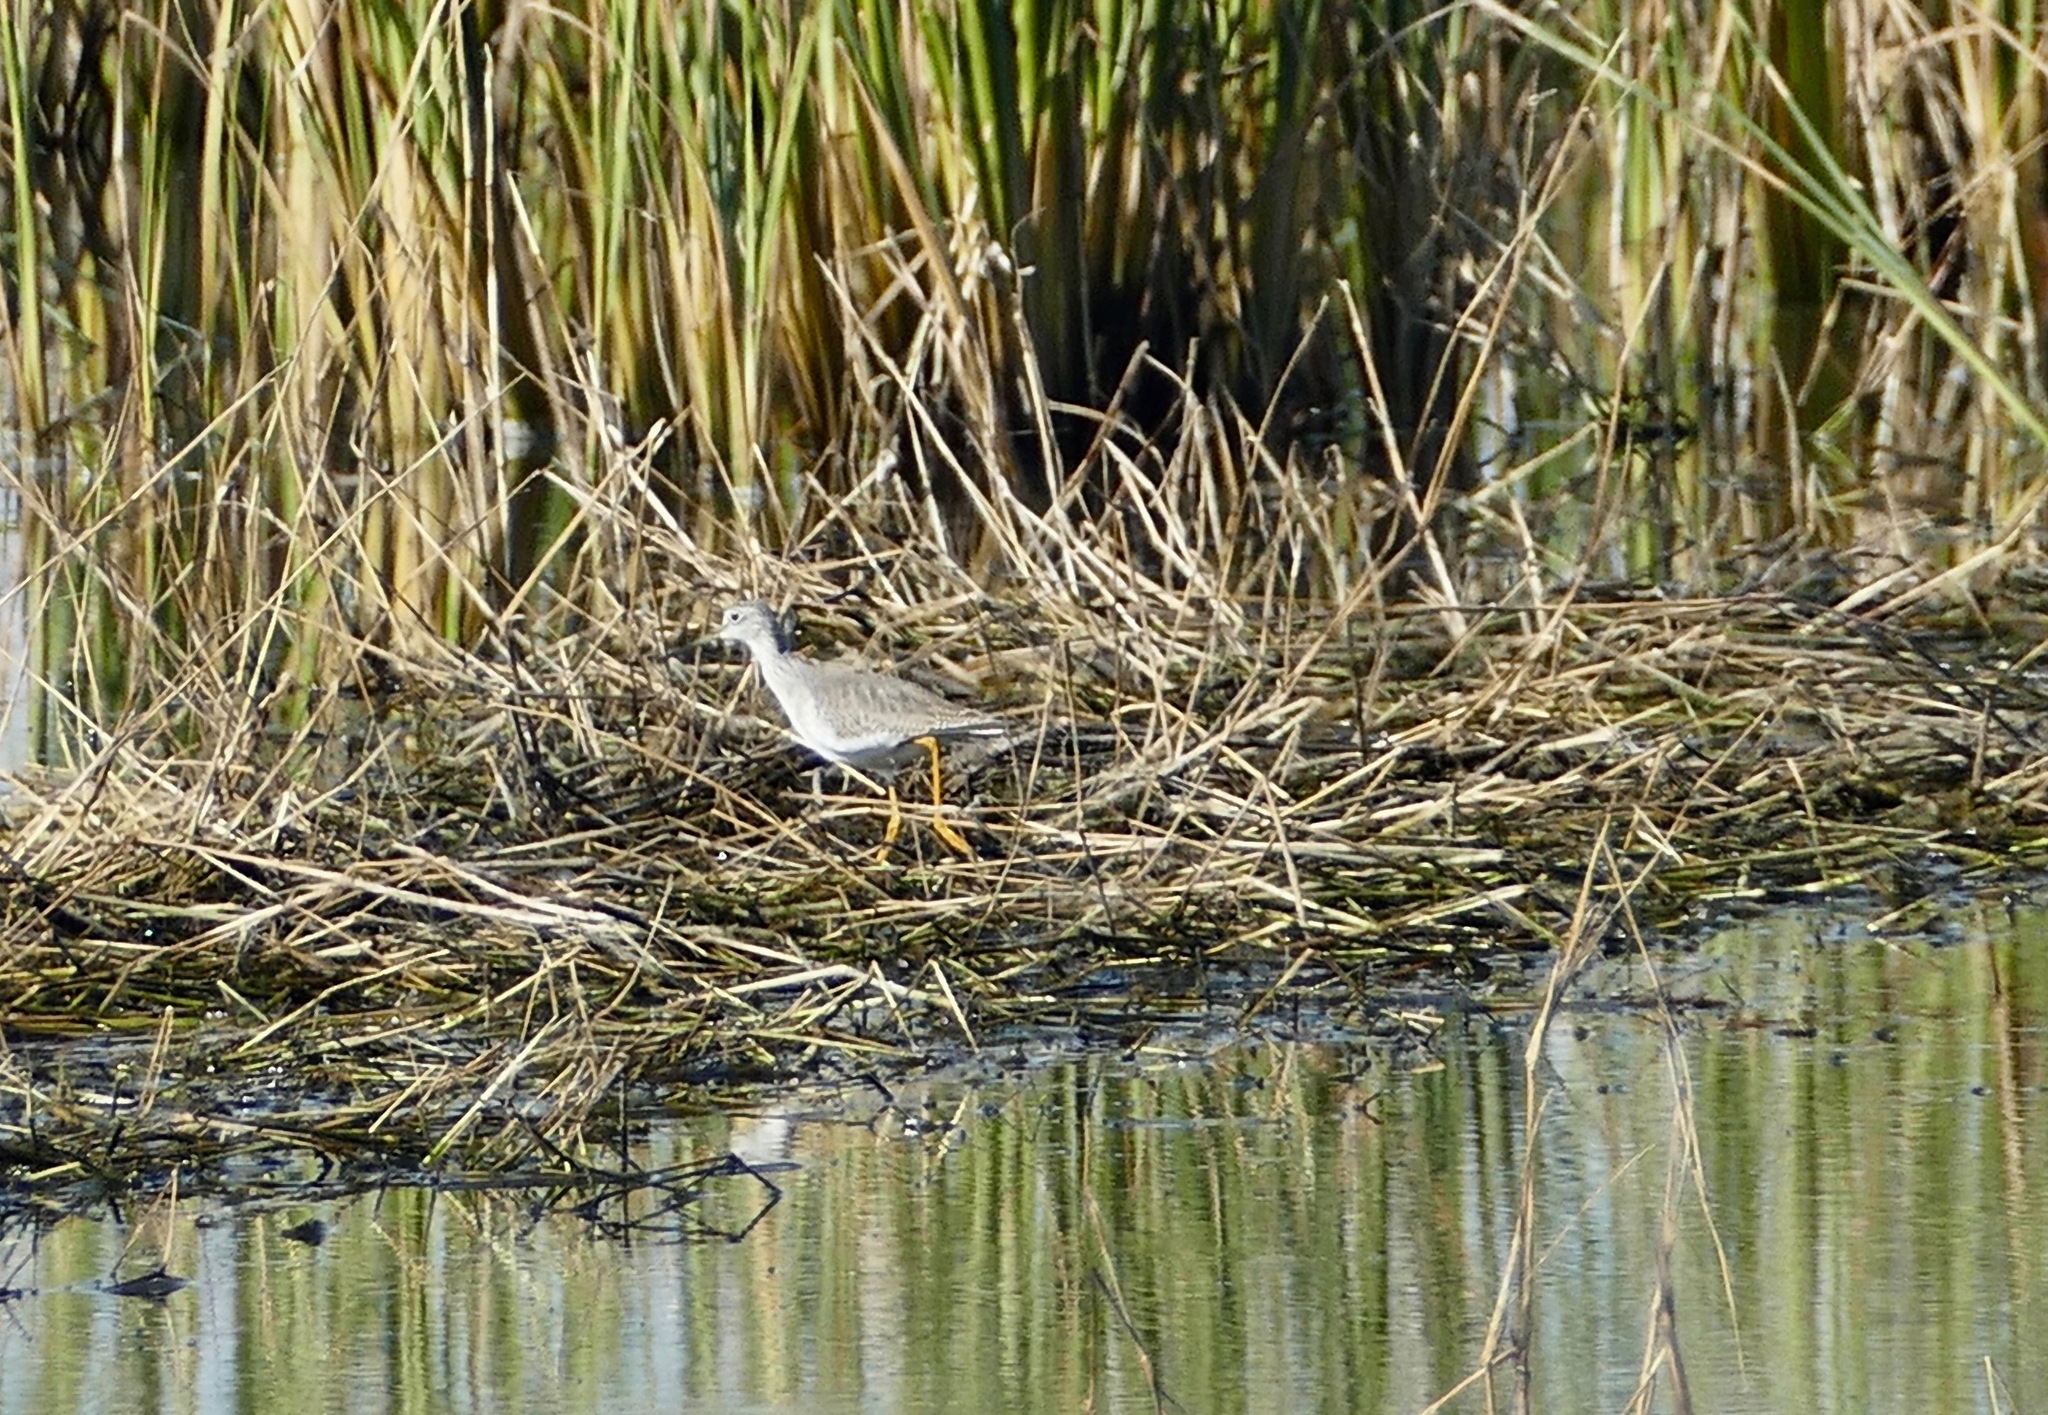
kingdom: Animalia
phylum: Chordata
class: Aves
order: Charadriiformes
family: Scolopacidae
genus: Tringa
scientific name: Tringa melanoleuca
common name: Greater yellowlegs
